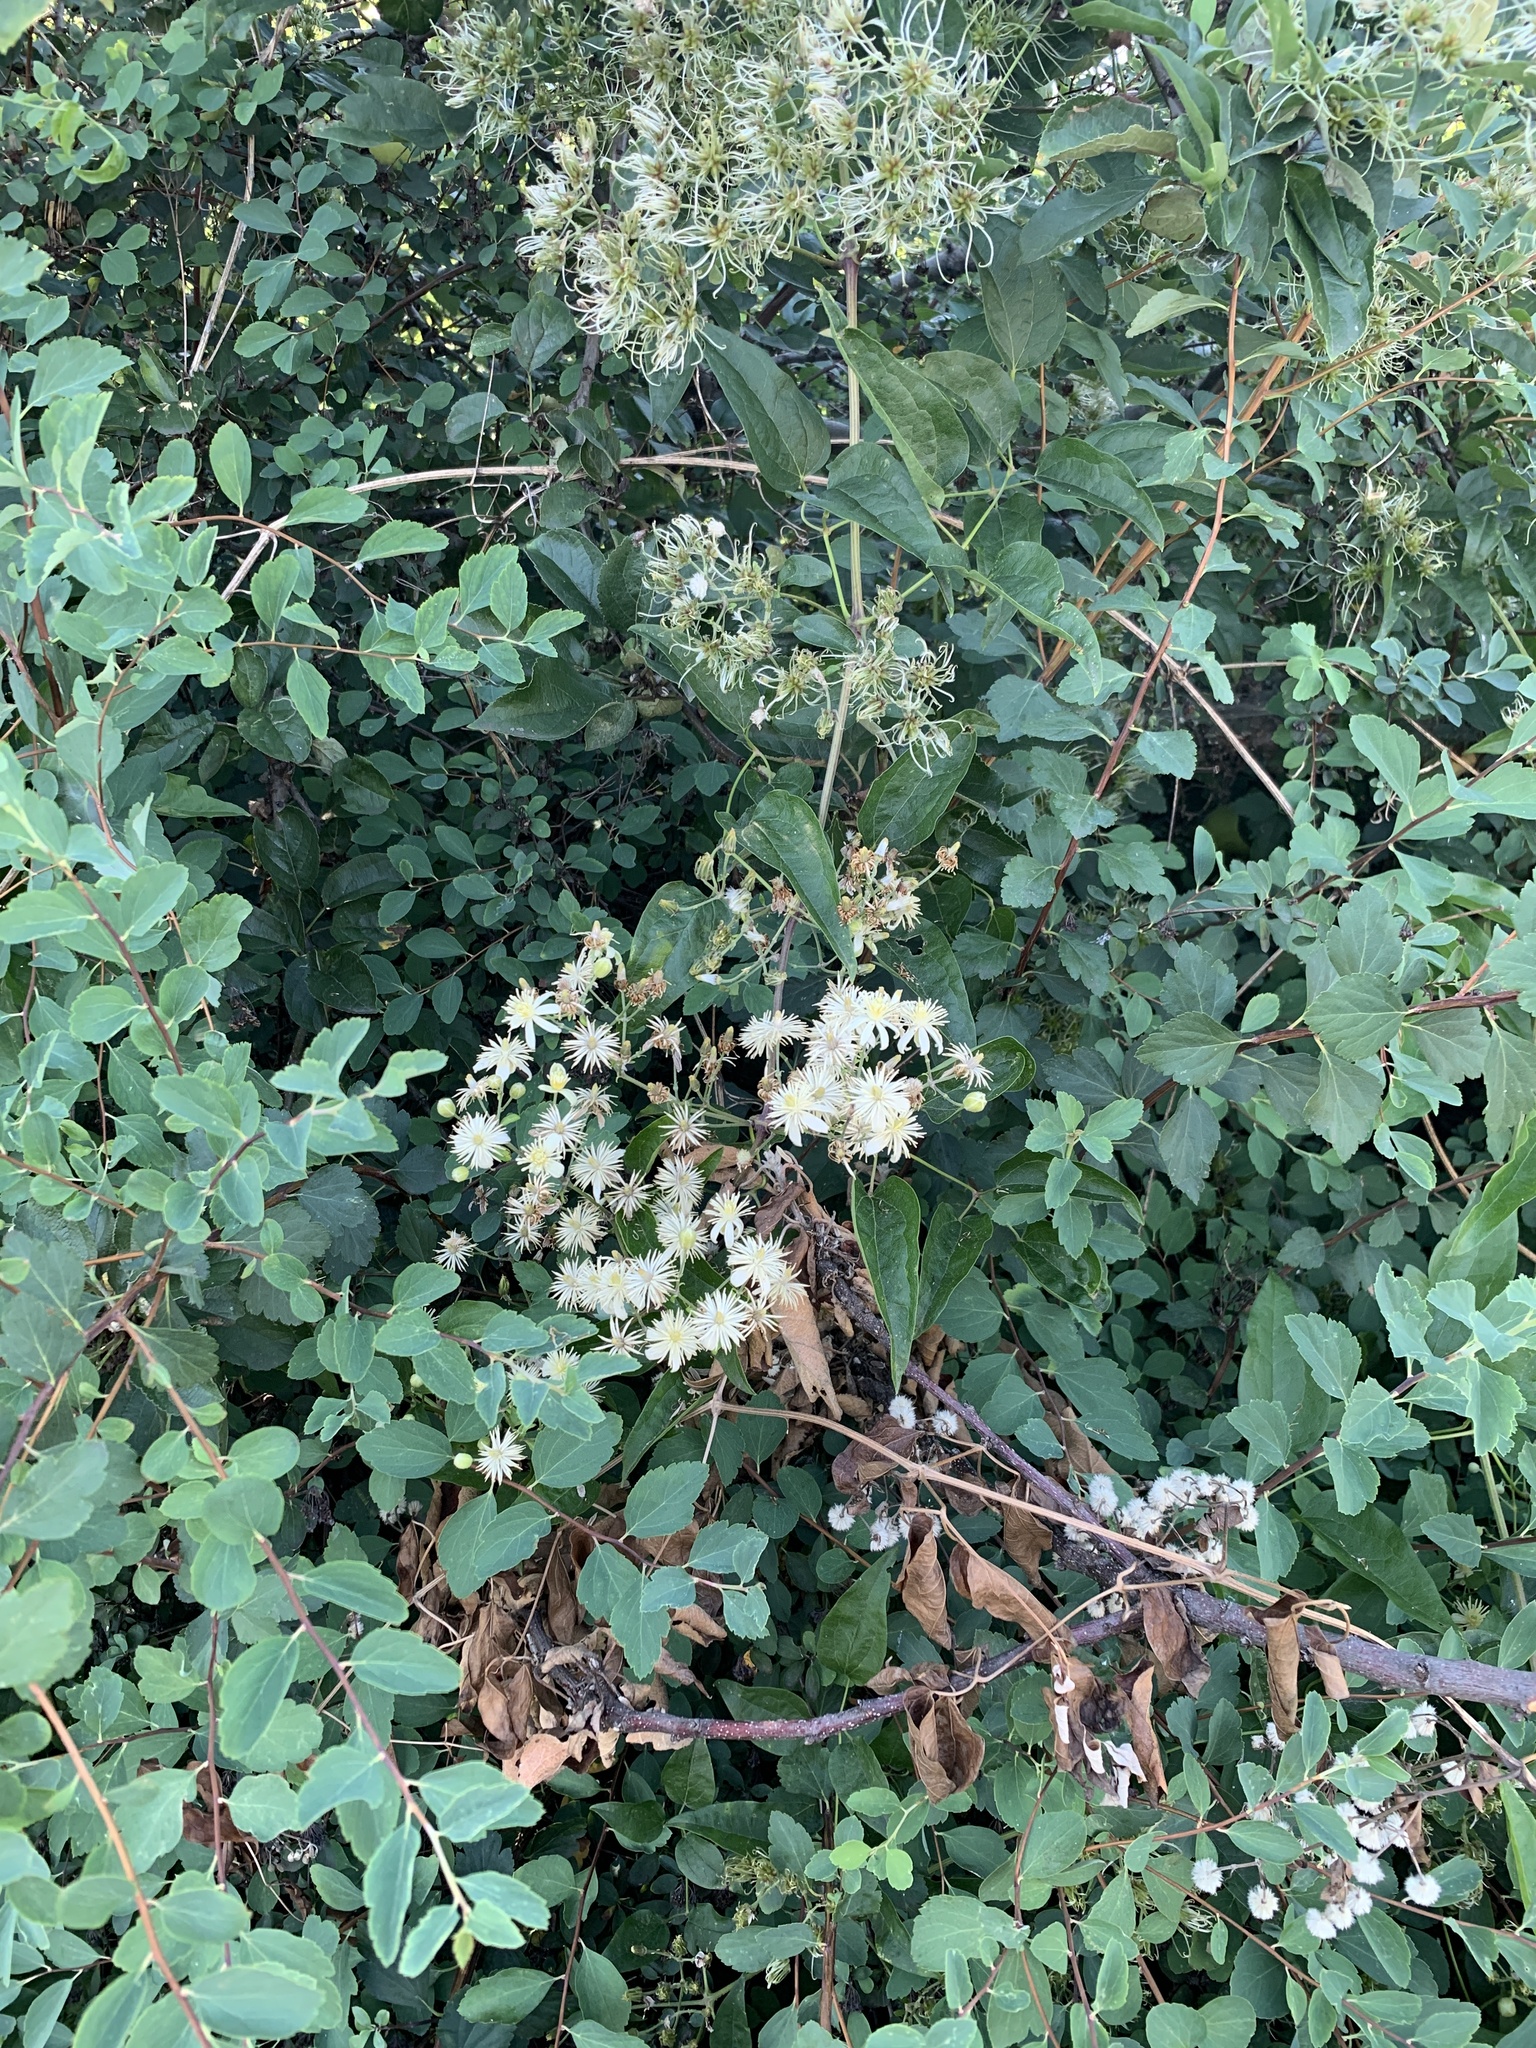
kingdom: Plantae
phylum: Tracheophyta
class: Magnoliopsida
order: Ranunculales
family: Ranunculaceae
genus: Clematis
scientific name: Clematis vitalba
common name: Evergreen clematis
